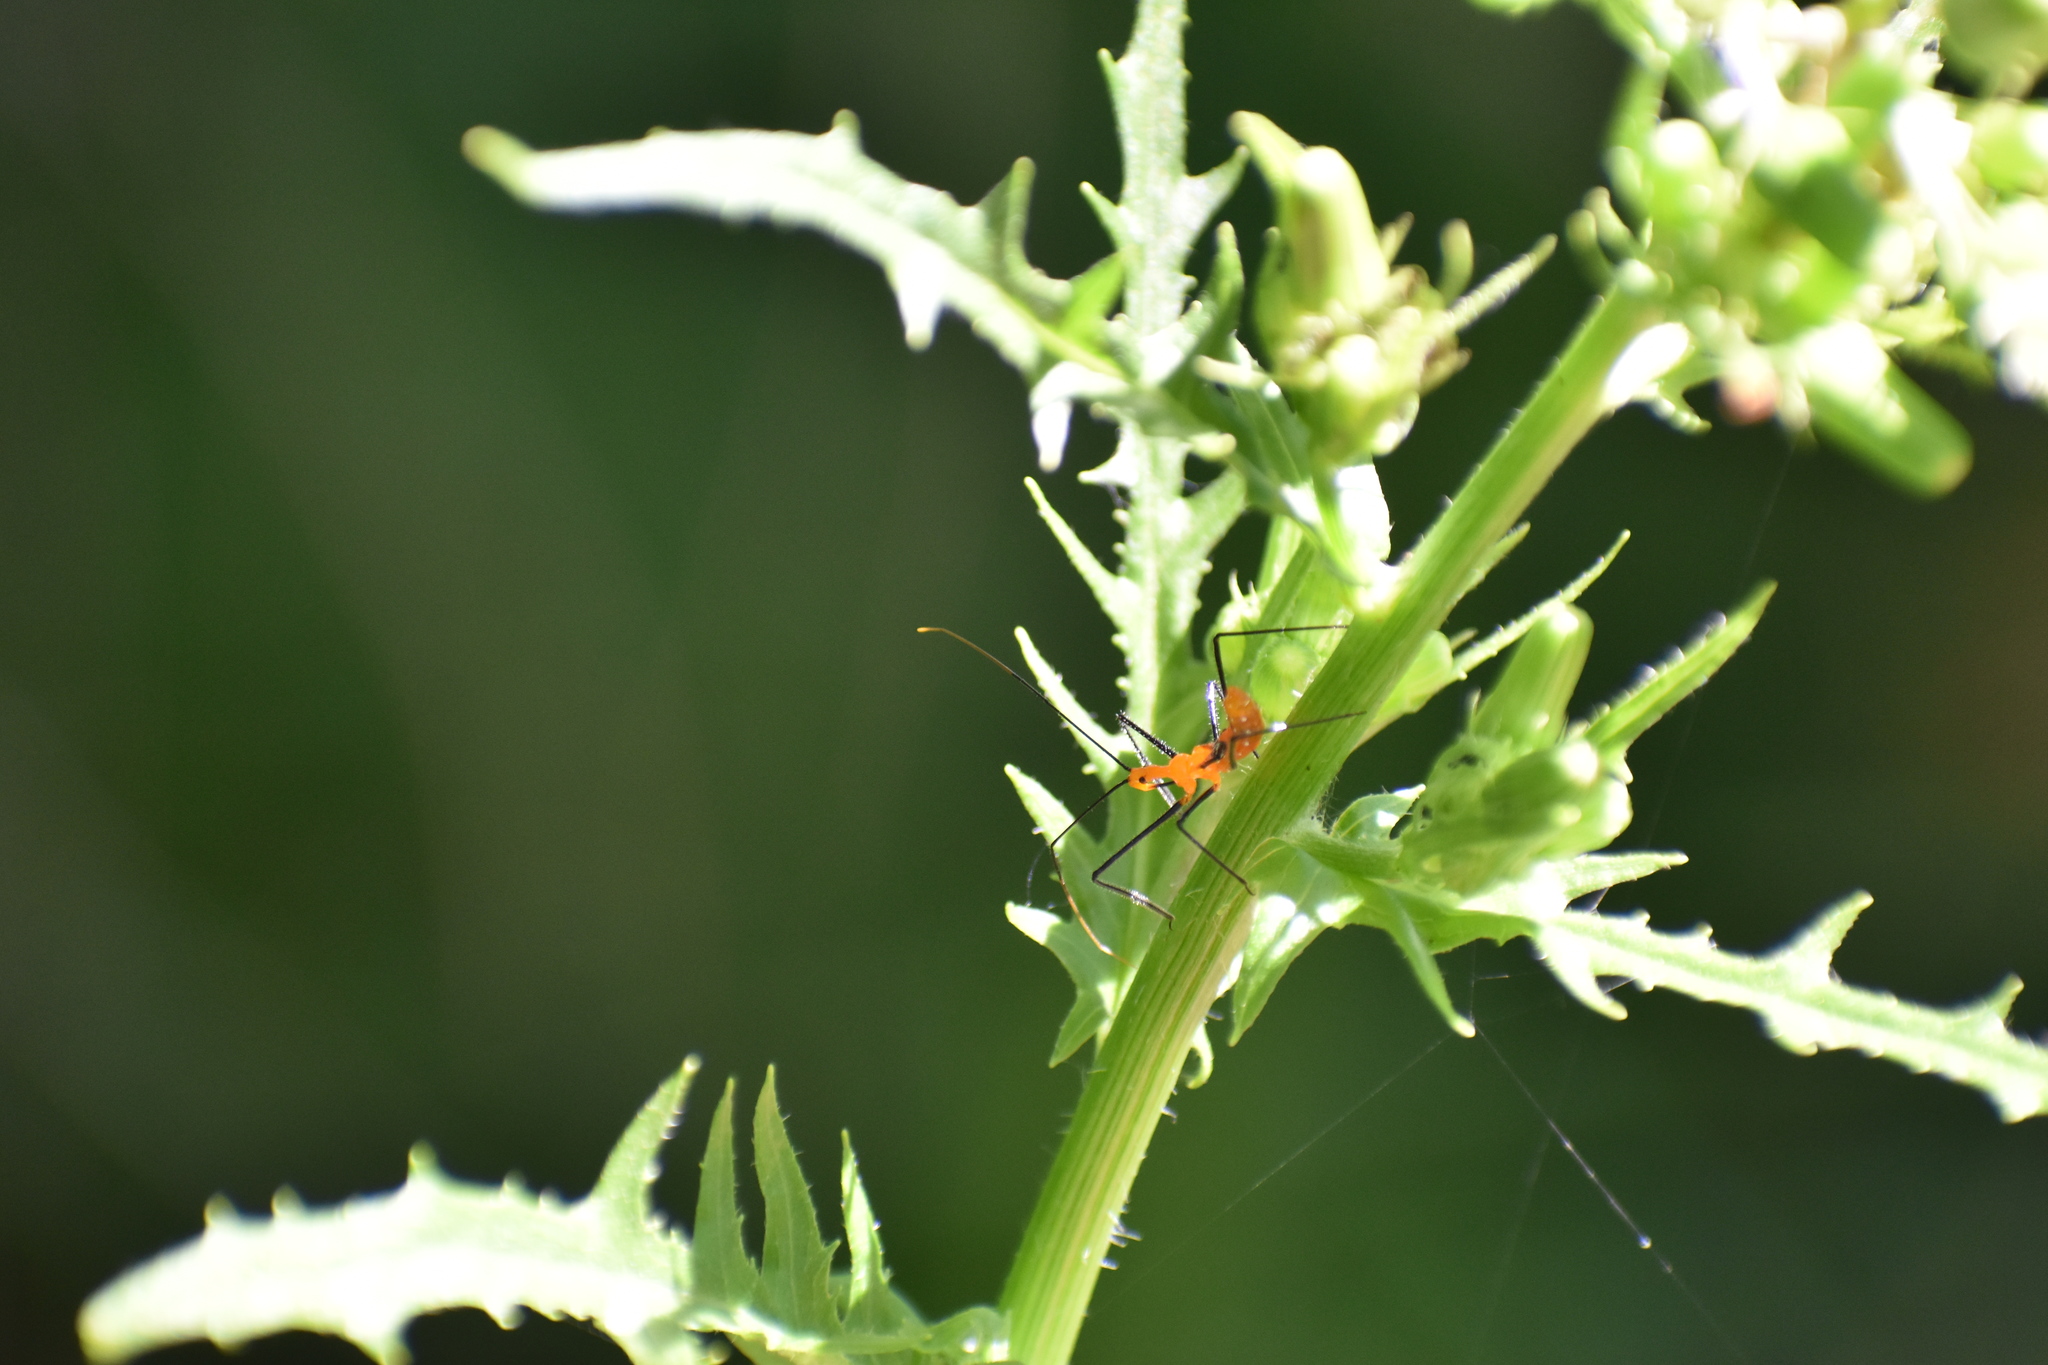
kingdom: Animalia
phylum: Arthropoda
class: Insecta
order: Hemiptera
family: Reduviidae
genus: Zelus
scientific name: Zelus longipes
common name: Milkweed assassin bug
